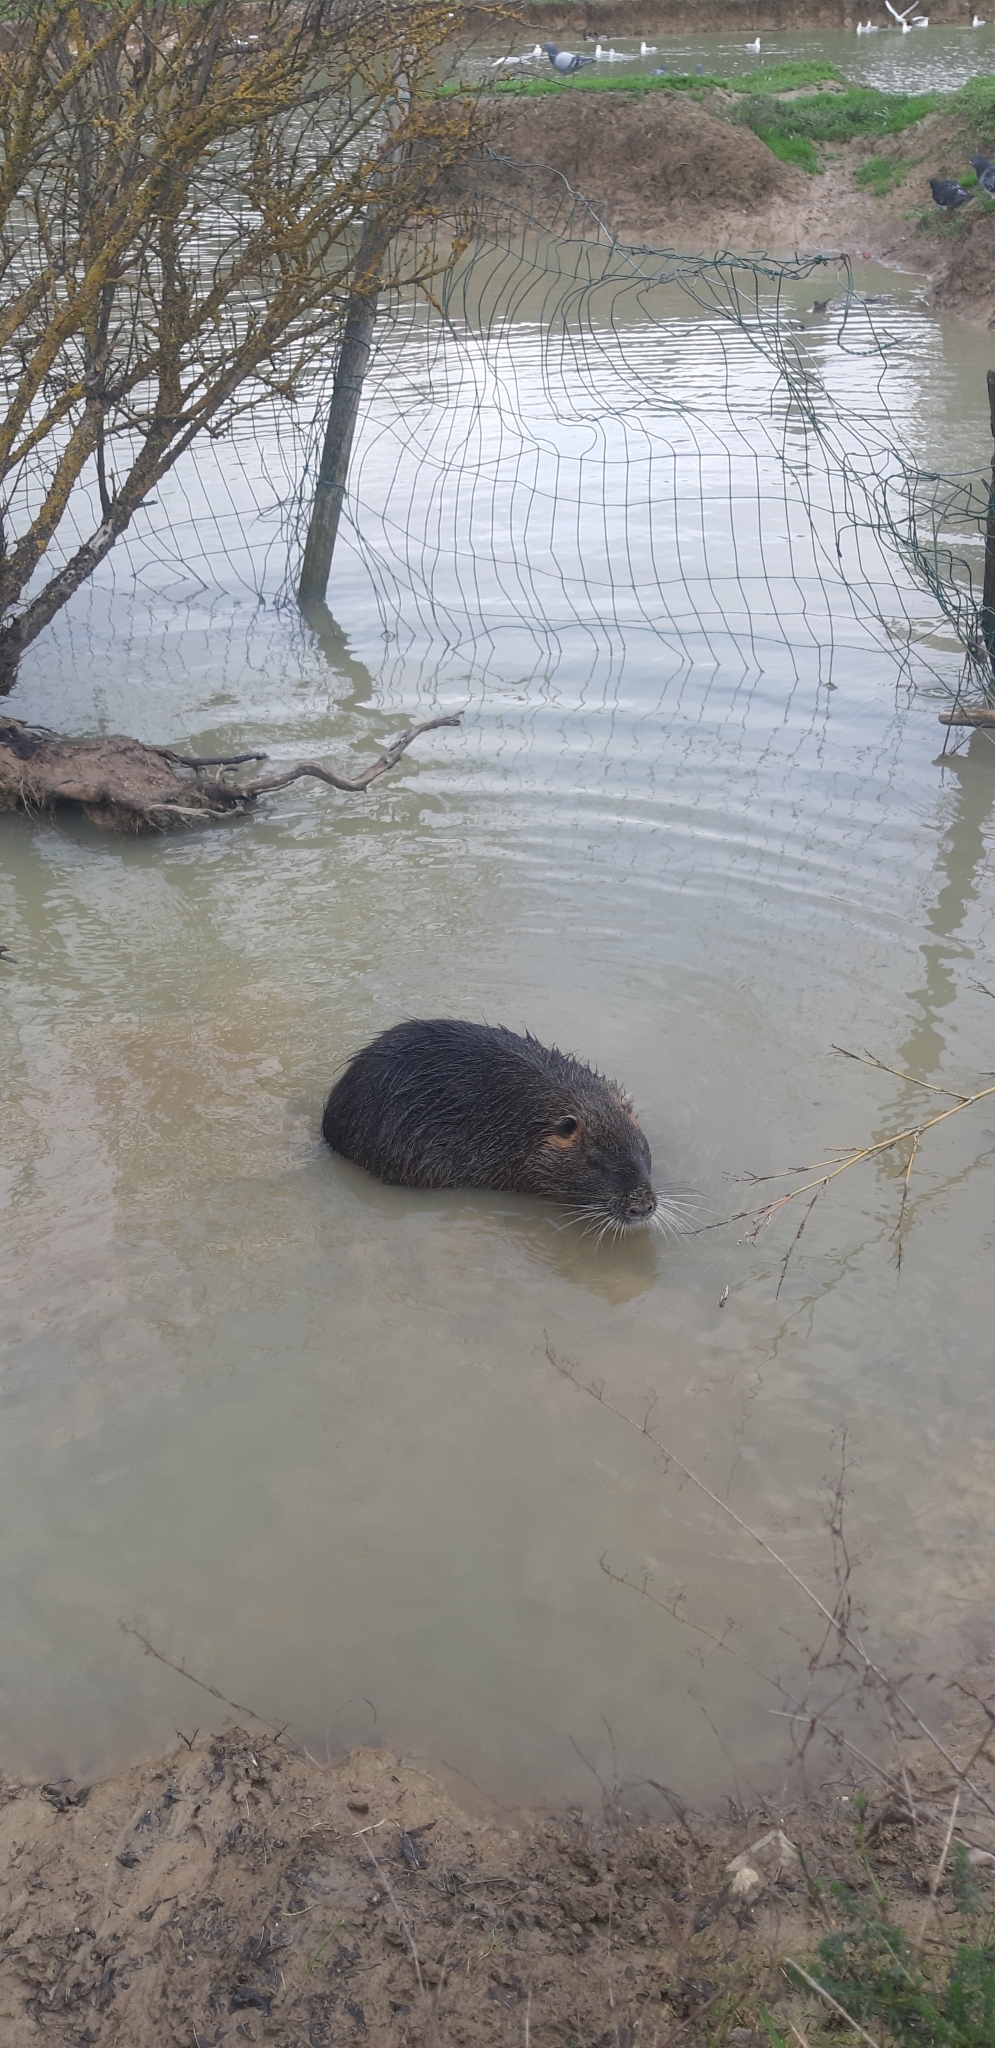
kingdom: Animalia
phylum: Chordata
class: Mammalia
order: Rodentia
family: Myocastoridae
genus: Myocastor
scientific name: Myocastor coypus
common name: Coypu
